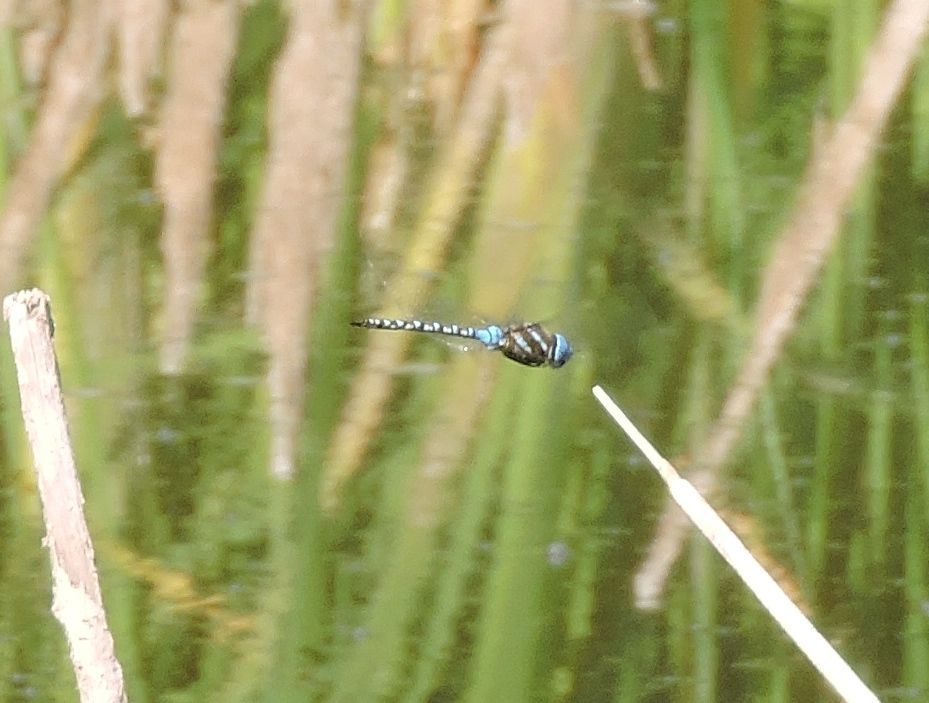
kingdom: Animalia
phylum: Arthropoda
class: Insecta
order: Odonata
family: Aeshnidae
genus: Rhionaeschna
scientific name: Rhionaeschna multicolor
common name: Blue-eyed darner
